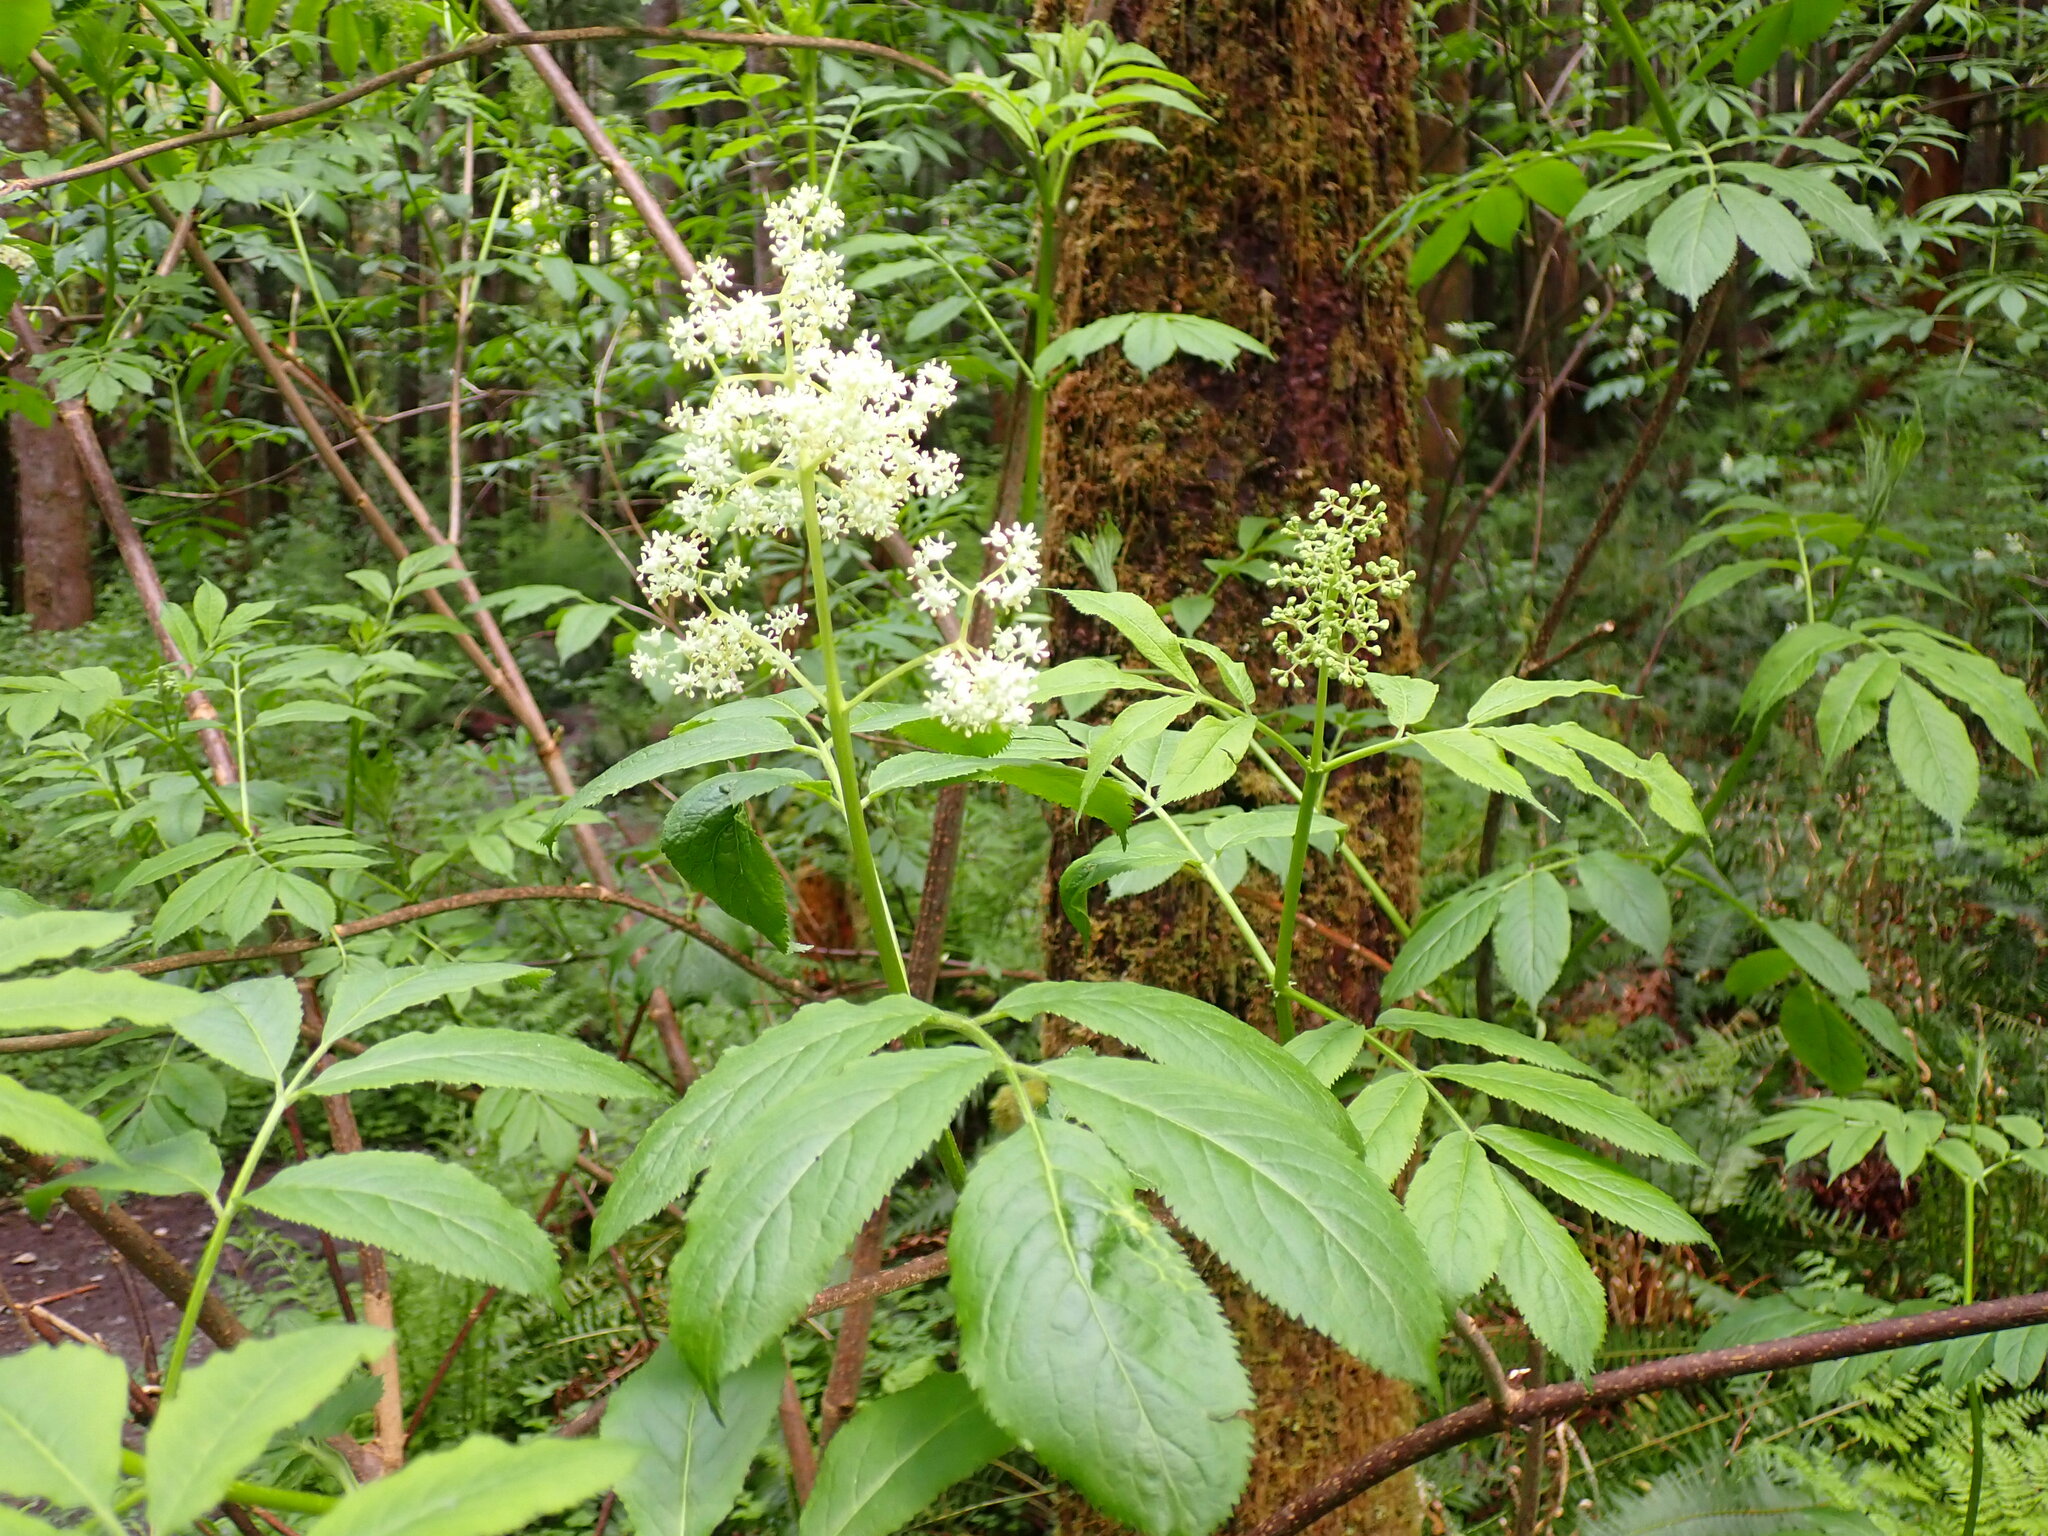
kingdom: Plantae
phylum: Tracheophyta
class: Magnoliopsida
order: Dipsacales
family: Viburnaceae
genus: Sambucus
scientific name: Sambucus racemosa
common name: Red-berried elder
